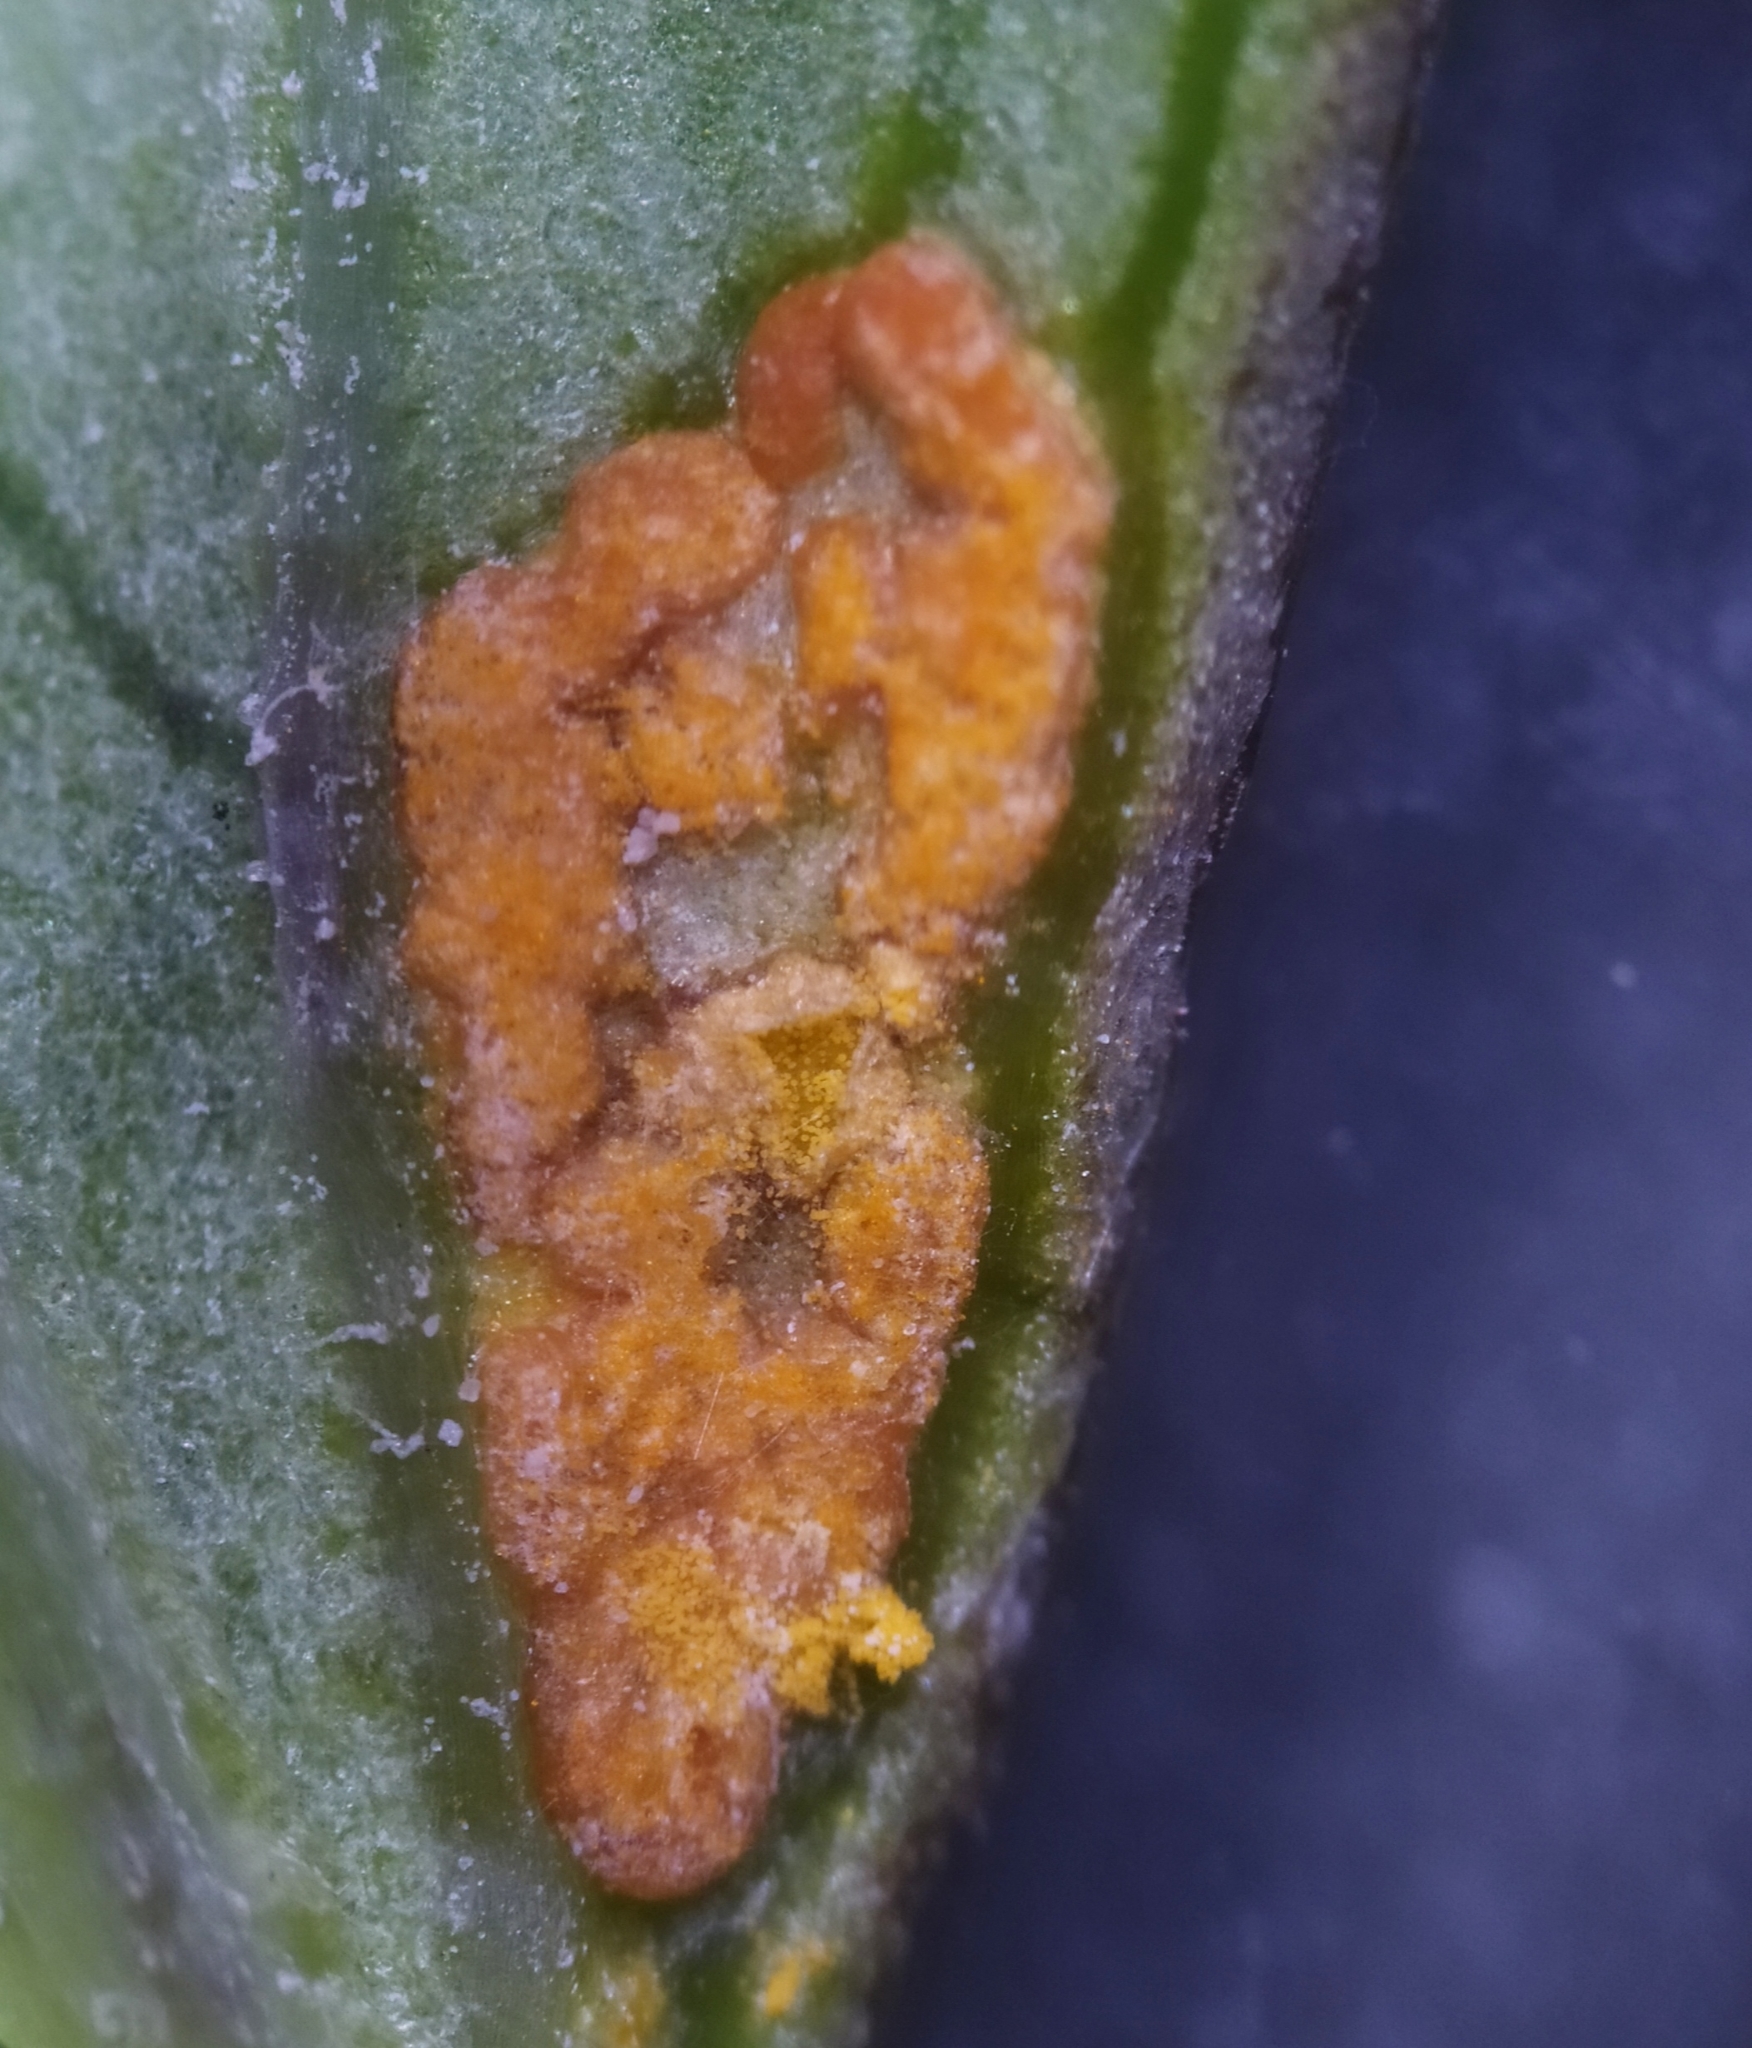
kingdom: Fungi
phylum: Basidiomycota
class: Pucciniomycetes
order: Pucciniales
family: Coleosporiaceae
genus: Coleosporium
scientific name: Coleosporium cacaliae
